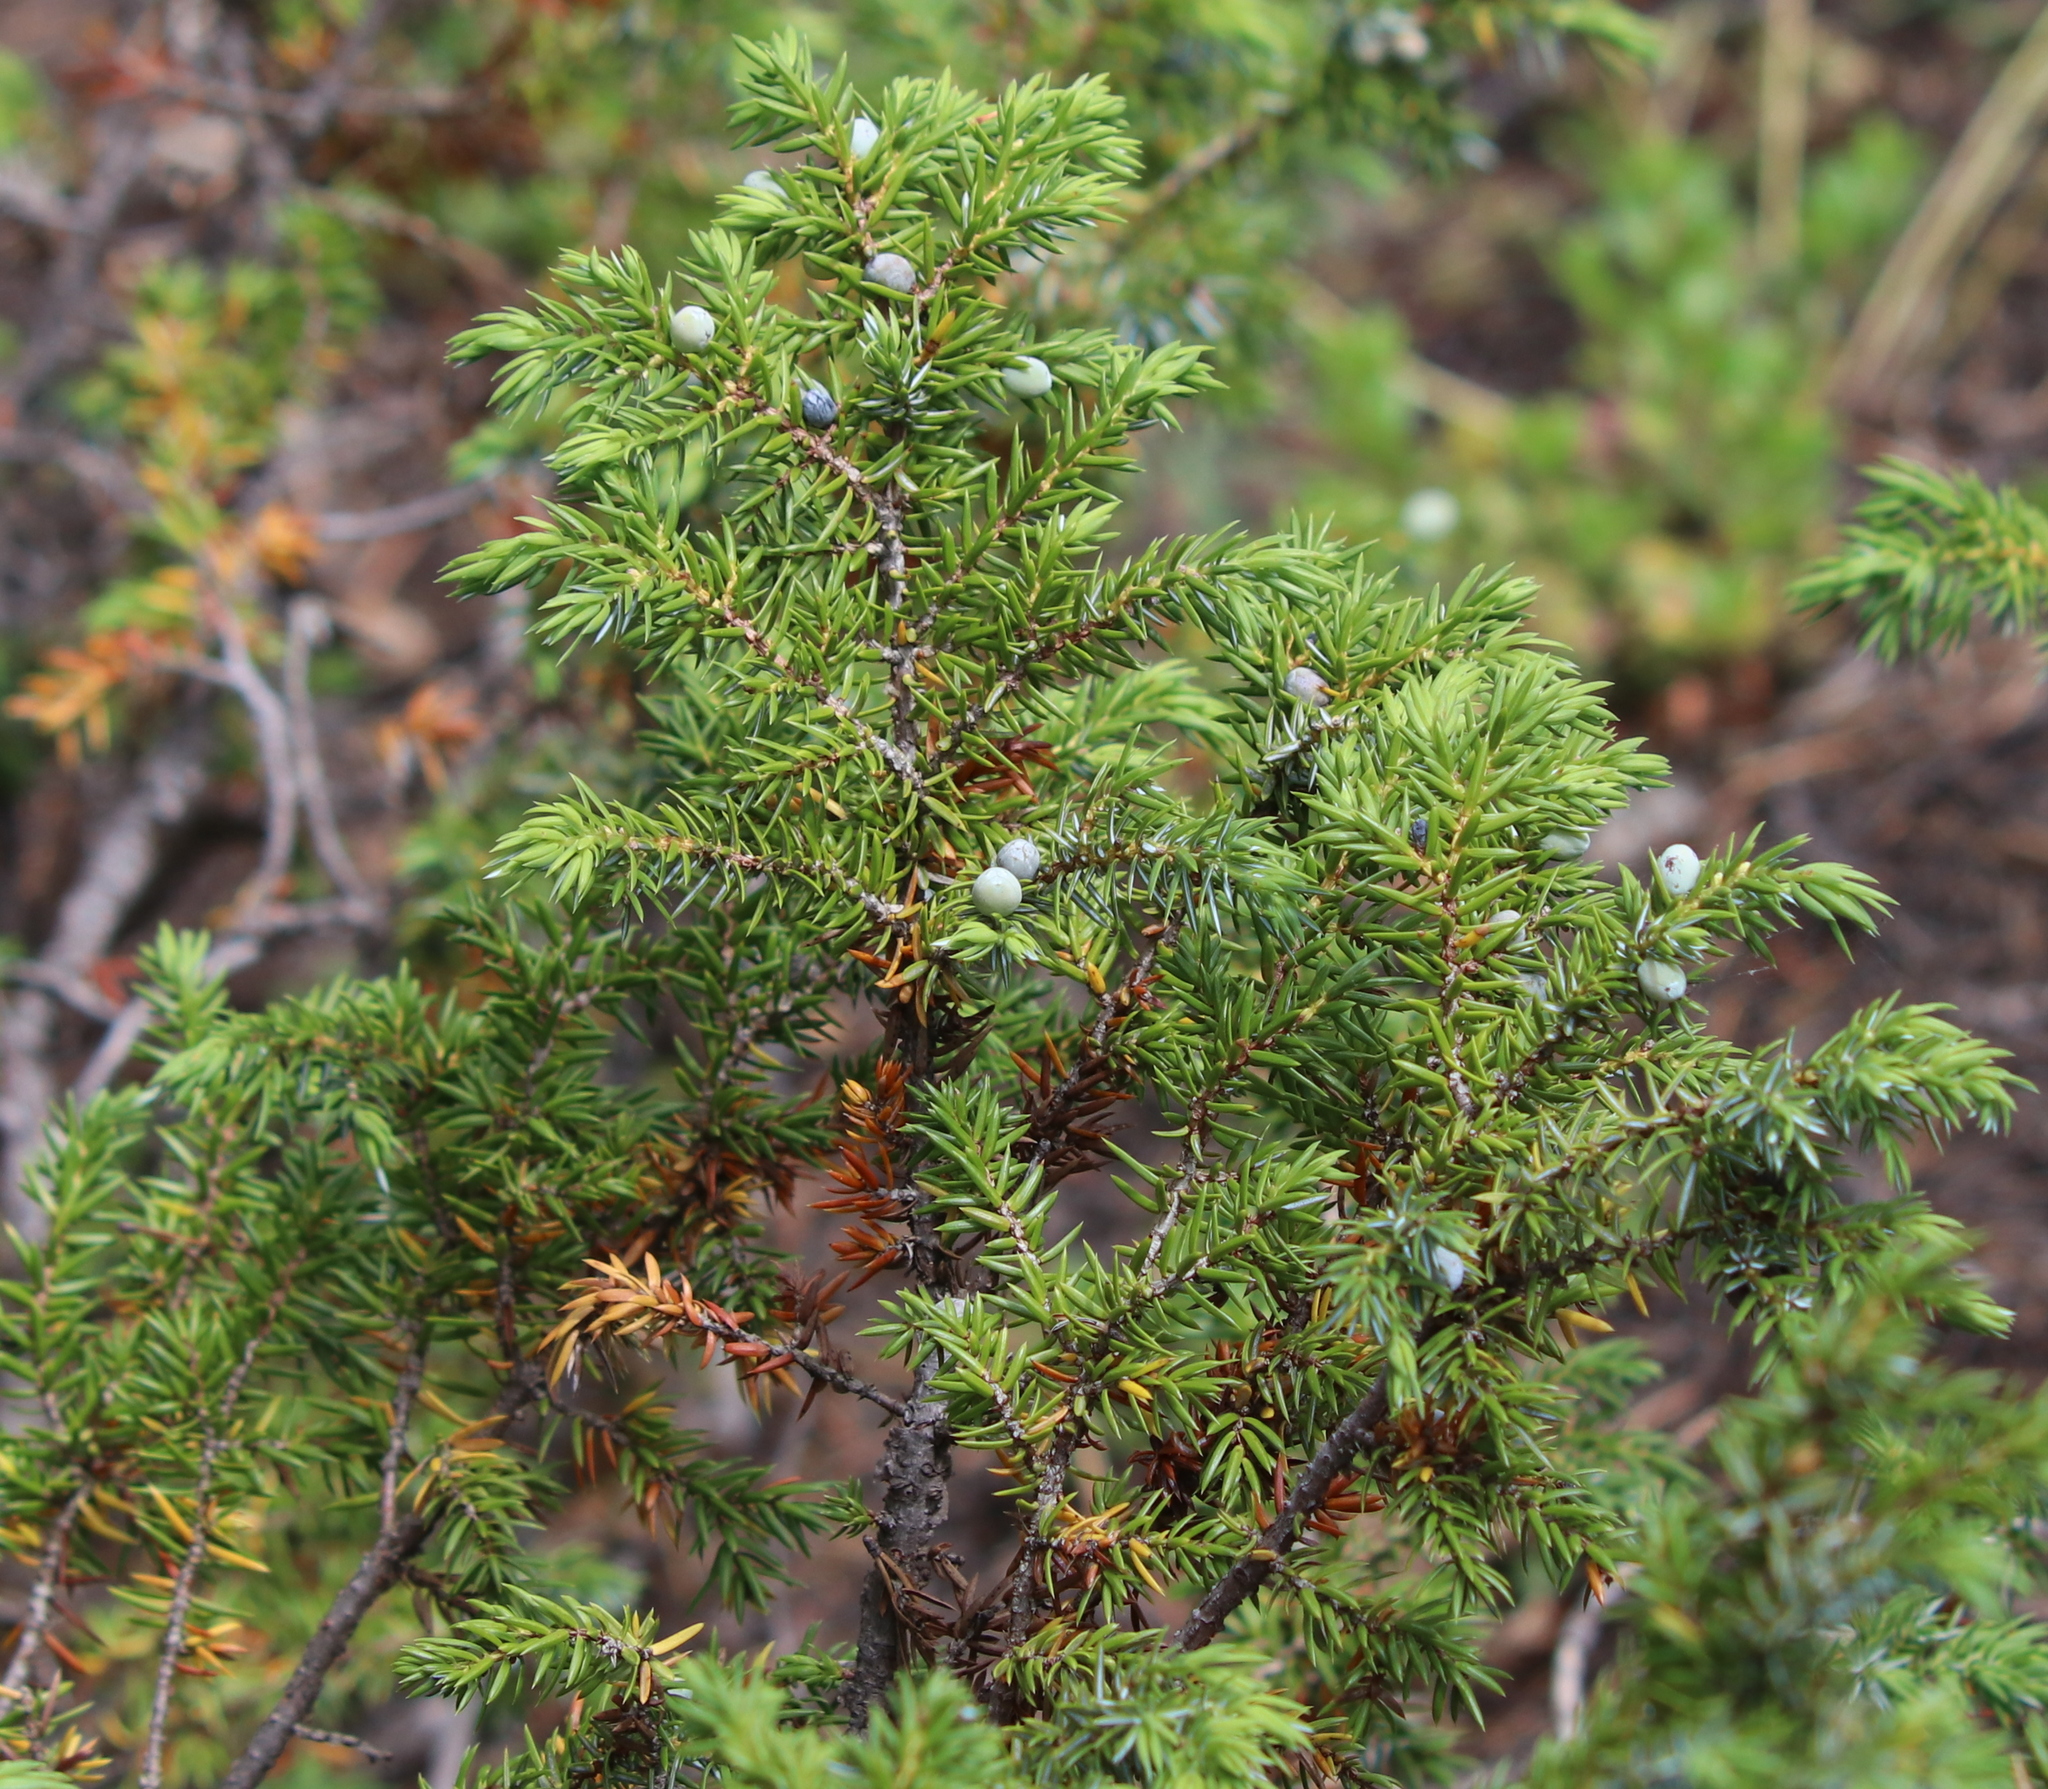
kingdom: Plantae
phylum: Tracheophyta
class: Pinopsida
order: Pinales
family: Cupressaceae
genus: Juniperus
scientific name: Juniperus communis
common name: Common juniper
